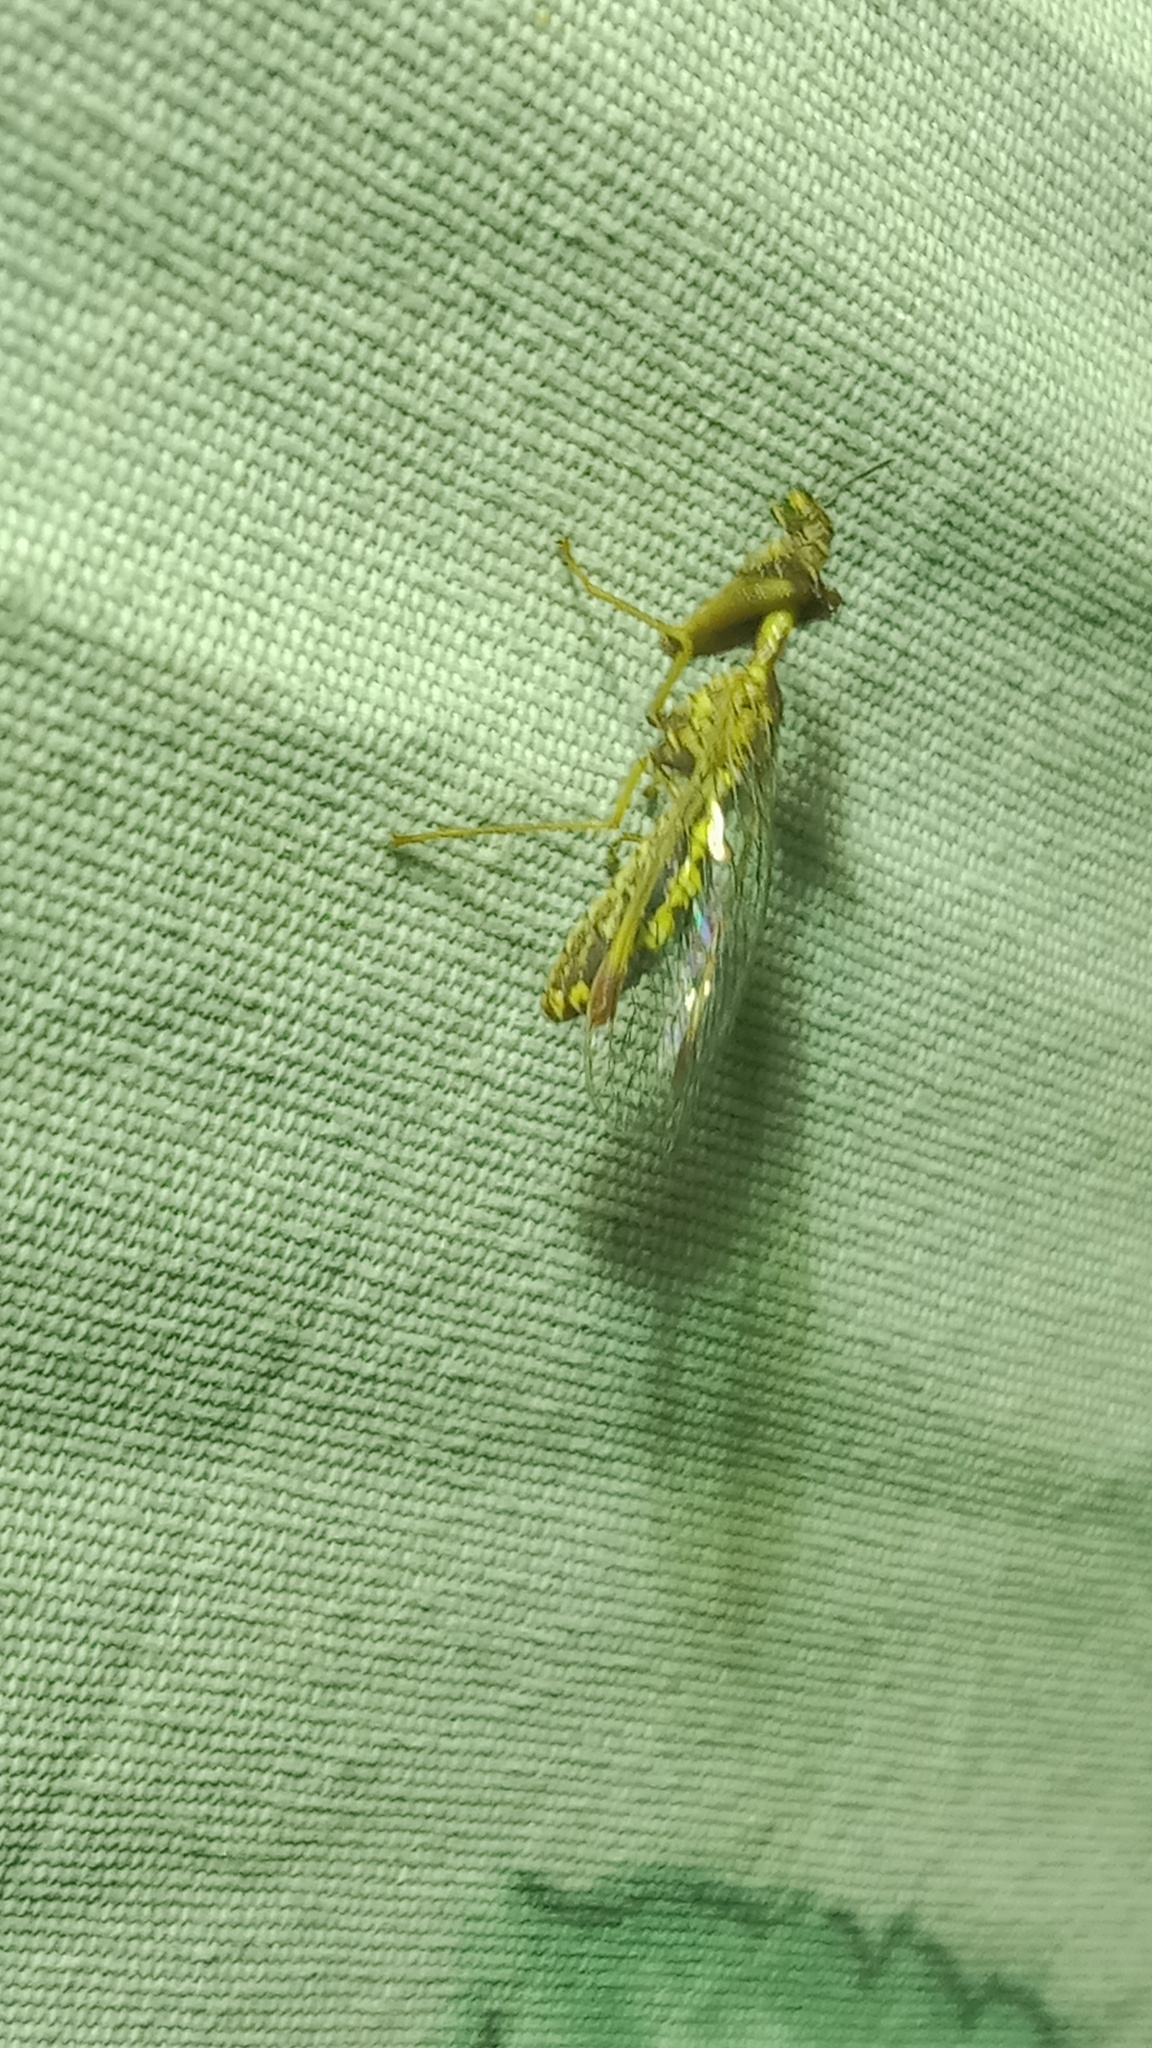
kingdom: Animalia
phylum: Arthropoda
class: Insecta
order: Neuroptera
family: Mantispidae
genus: Mantispa
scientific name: Mantispa styriaca
